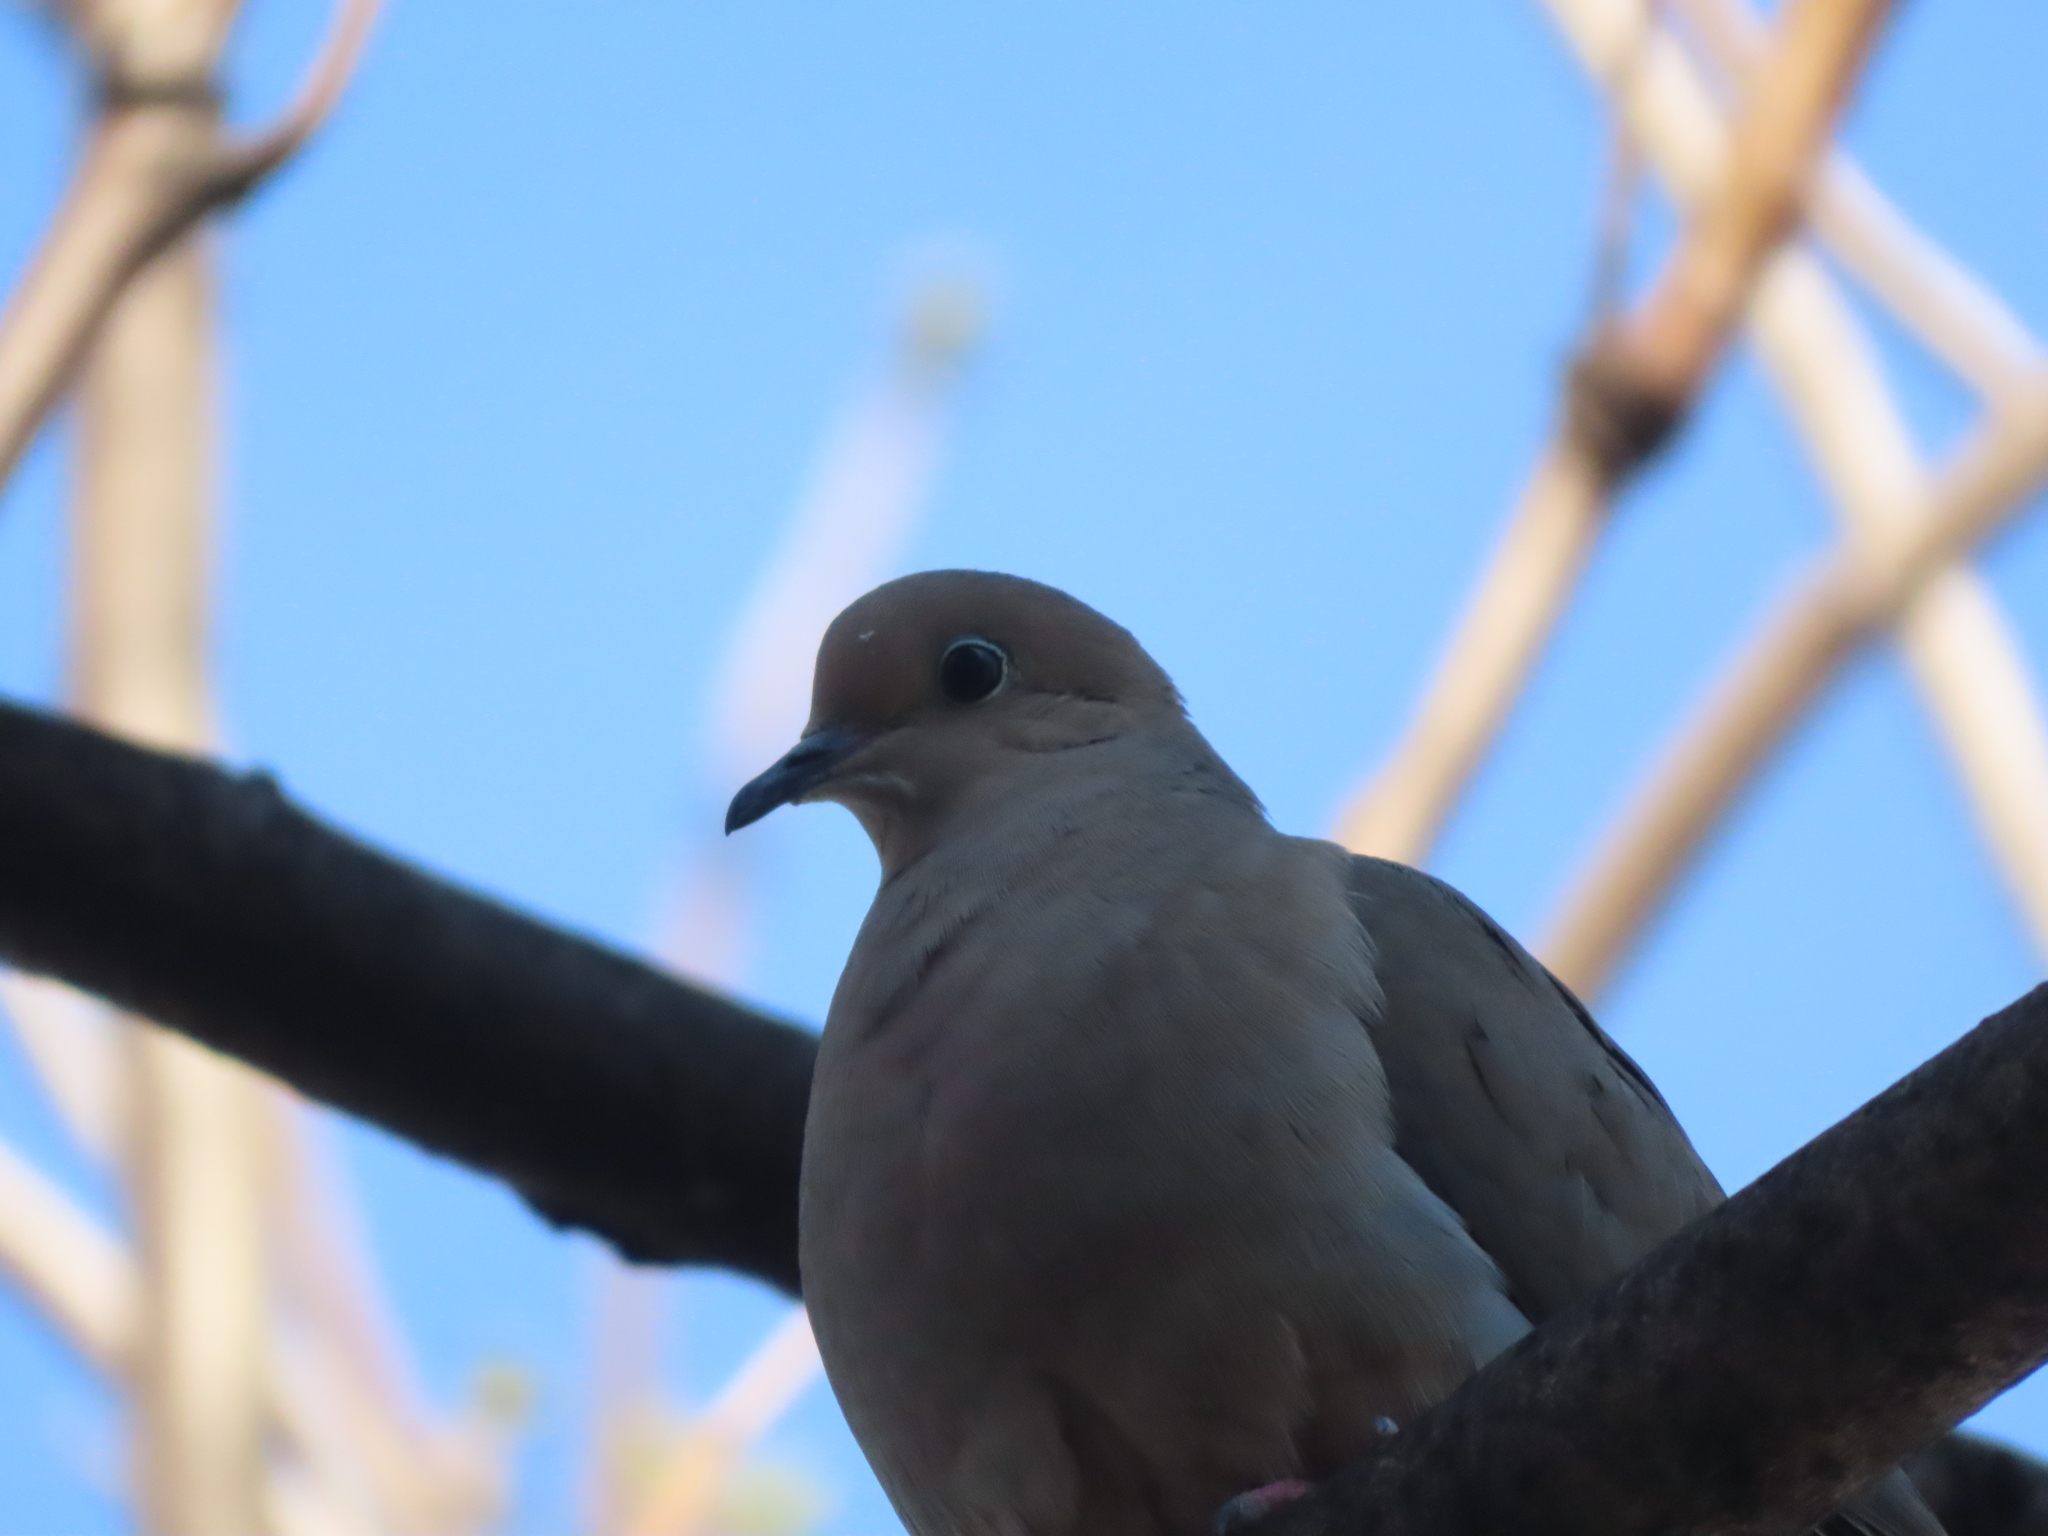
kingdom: Animalia
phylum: Chordata
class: Aves
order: Columbiformes
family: Columbidae
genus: Zenaida
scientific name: Zenaida macroura
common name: Mourning dove
